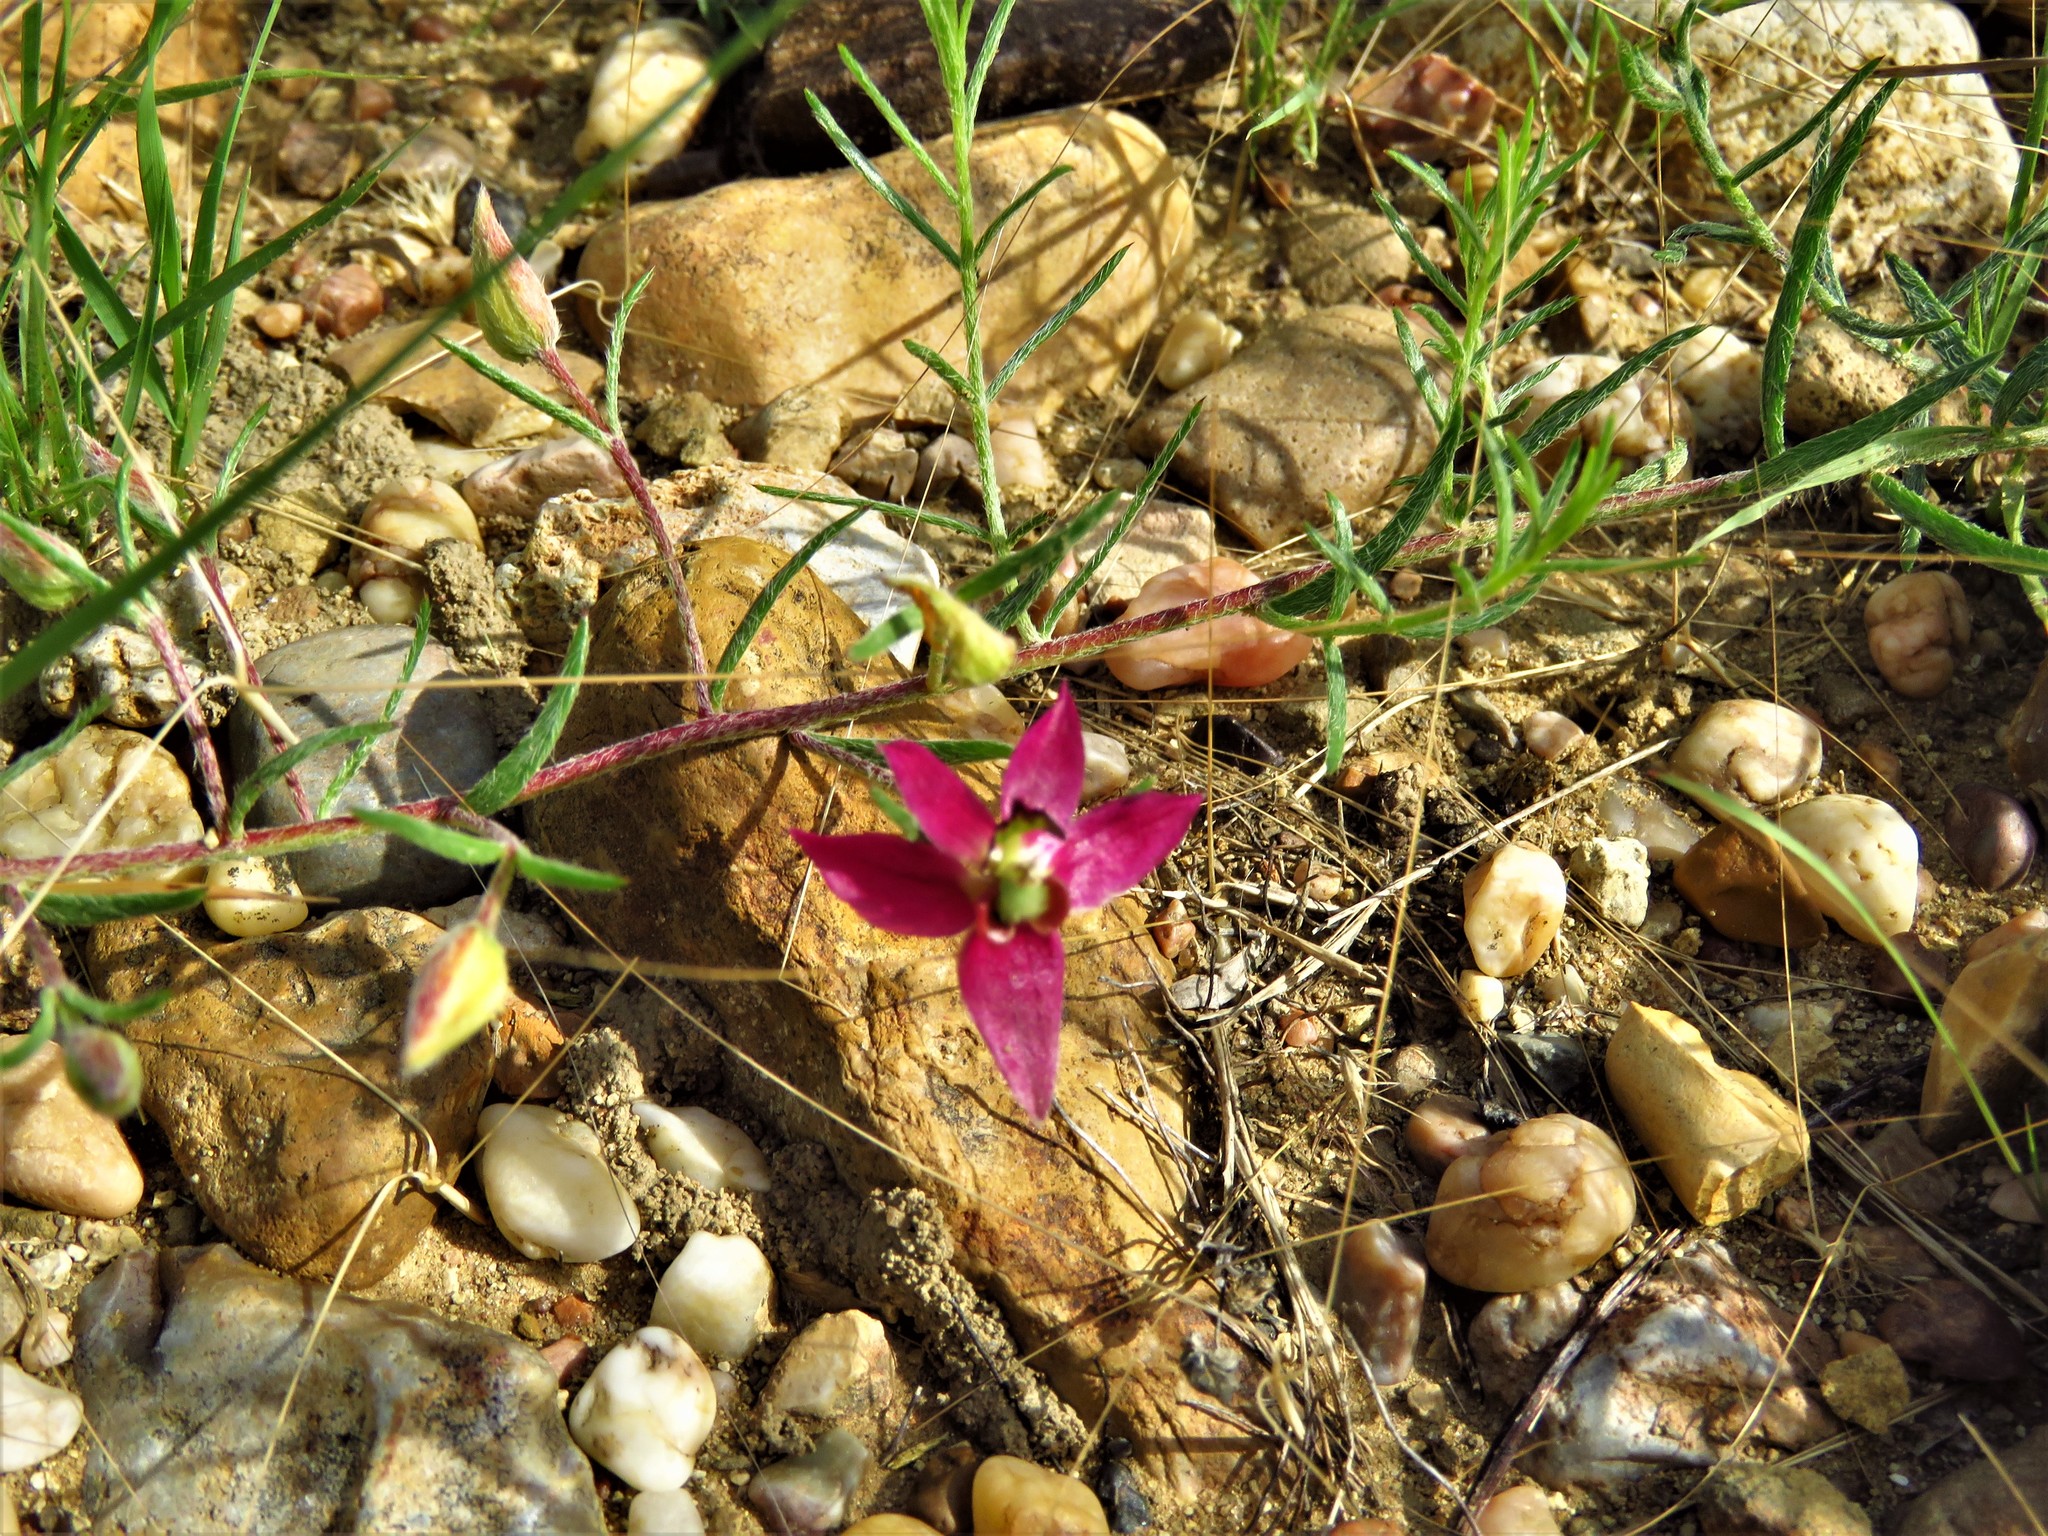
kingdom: Plantae
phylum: Tracheophyta
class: Magnoliopsida
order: Zygophyllales
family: Krameriaceae
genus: Krameria
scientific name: Krameria lanceolata
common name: Ratany
